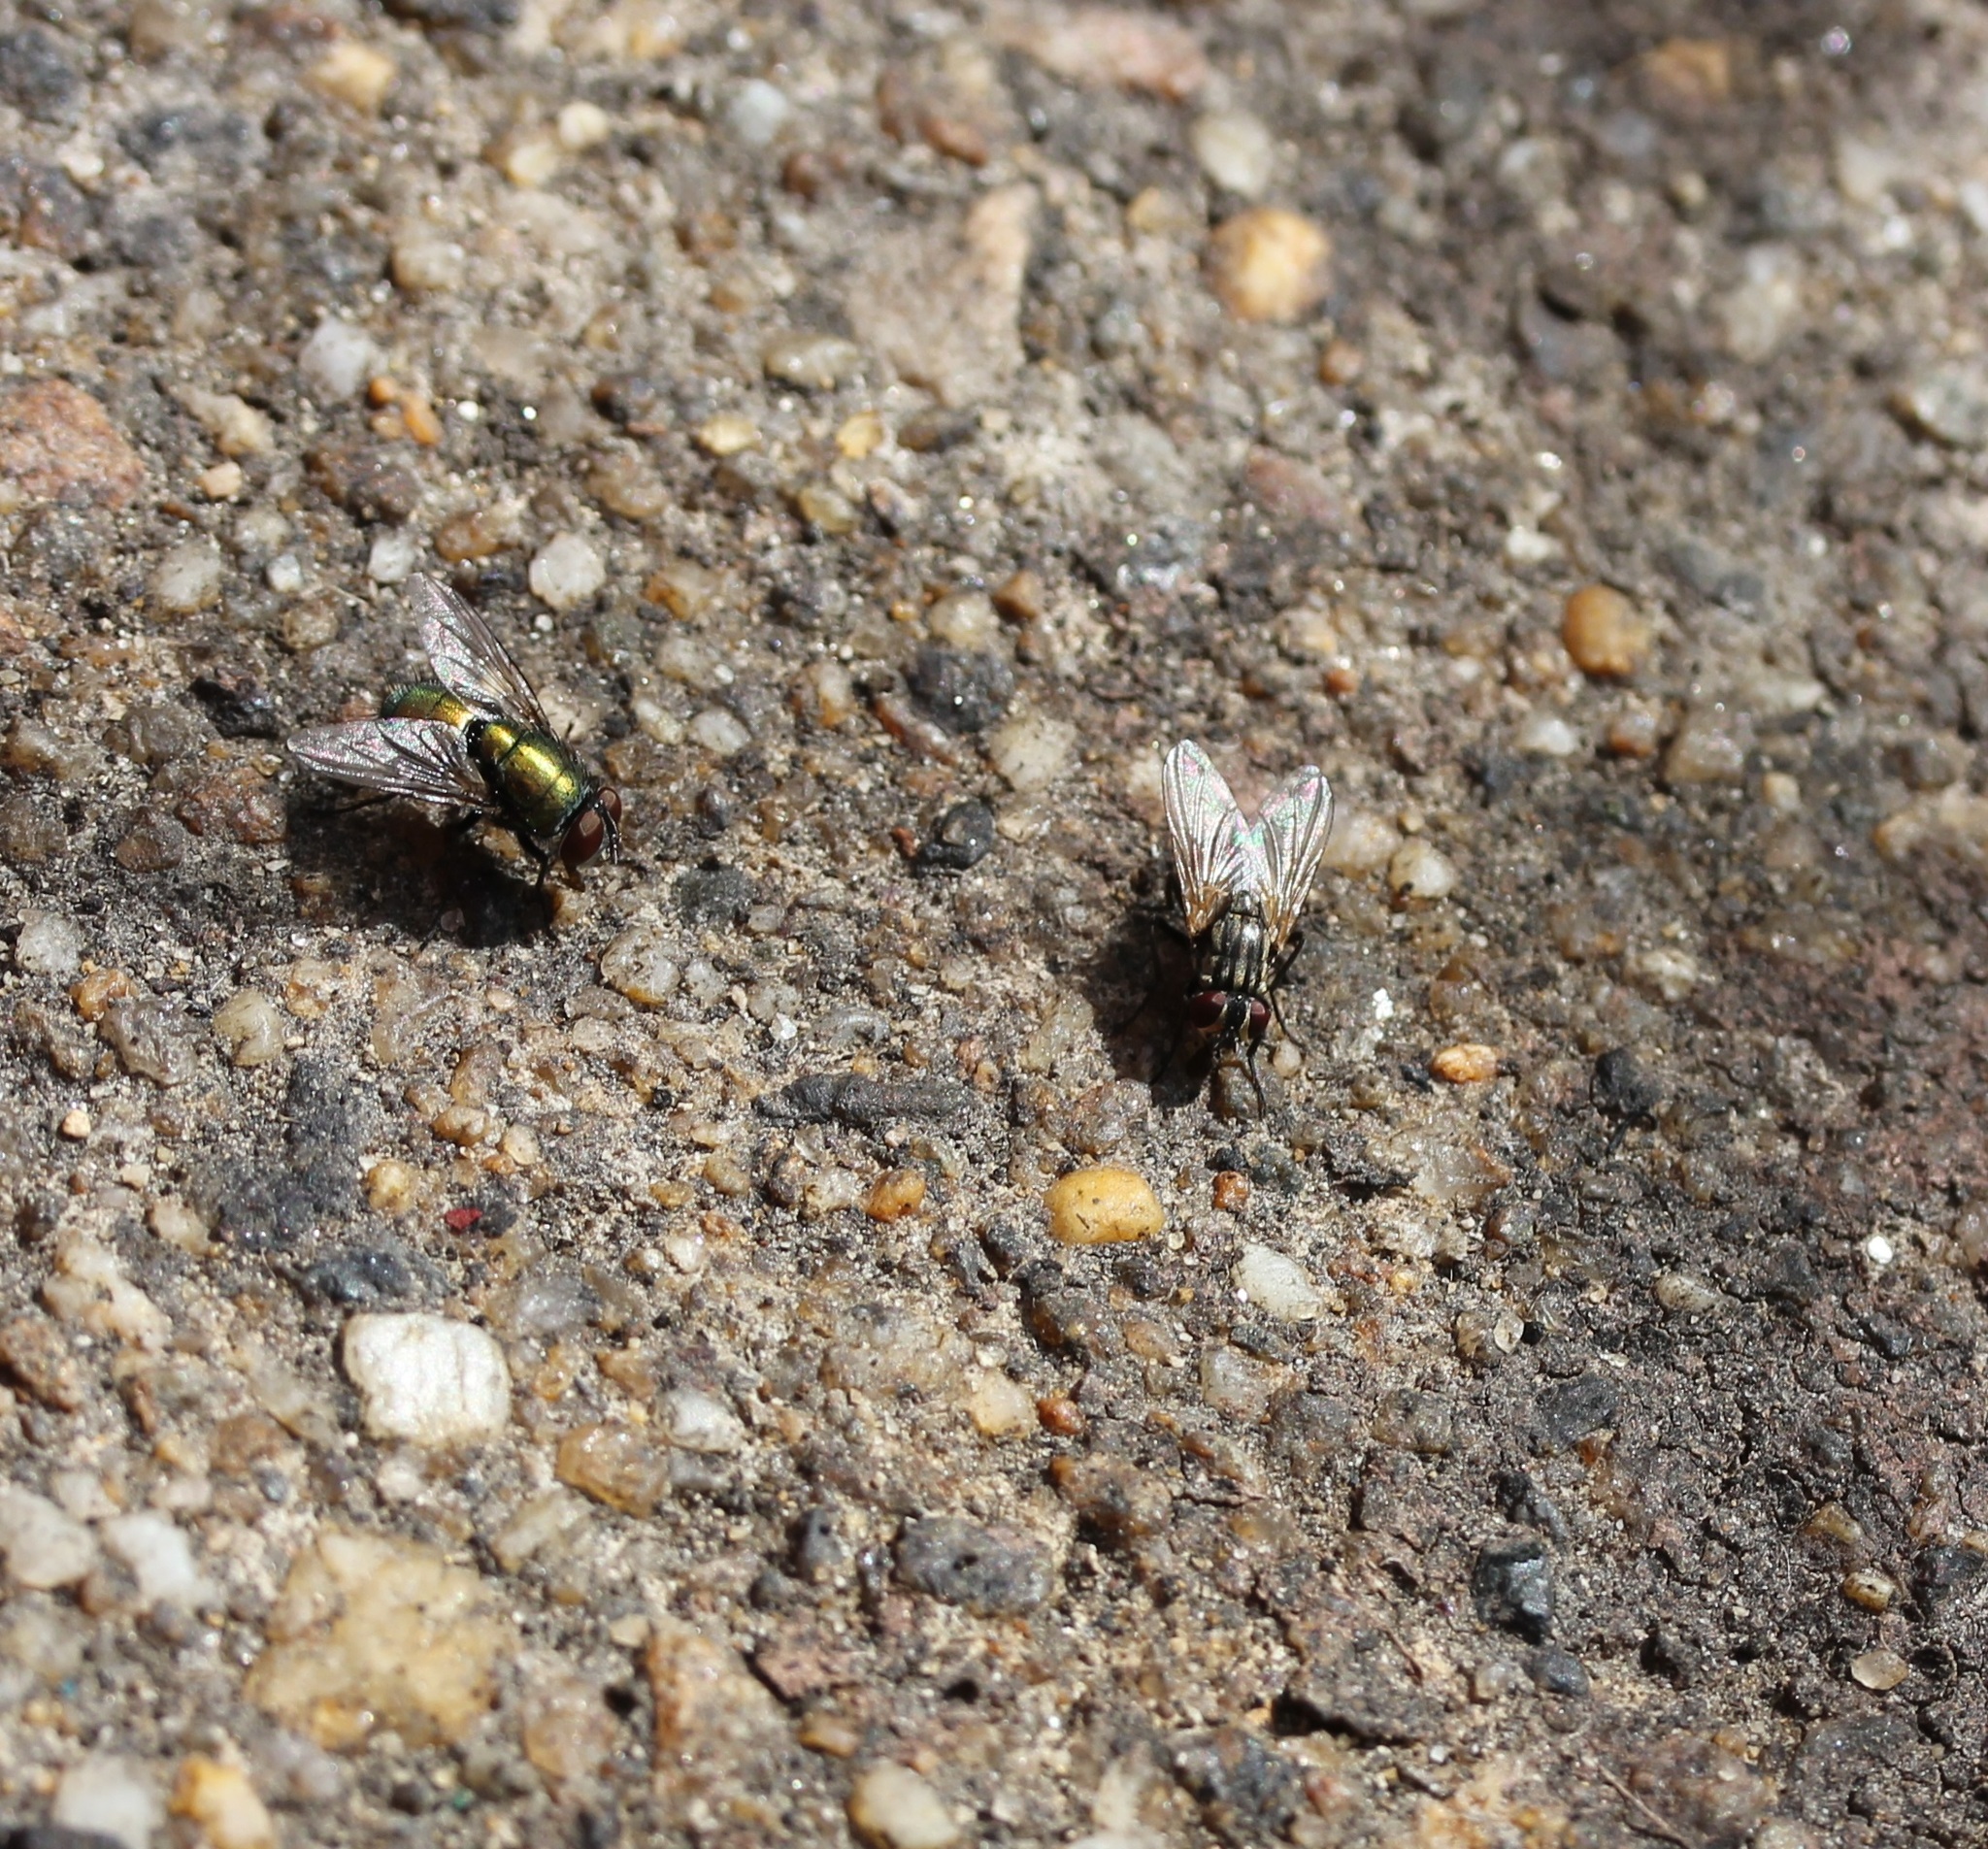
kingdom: Animalia
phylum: Arthropoda
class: Insecta
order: Diptera
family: Calliphoridae
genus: Lucilia
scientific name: Lucilia sericata
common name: Blow fly
